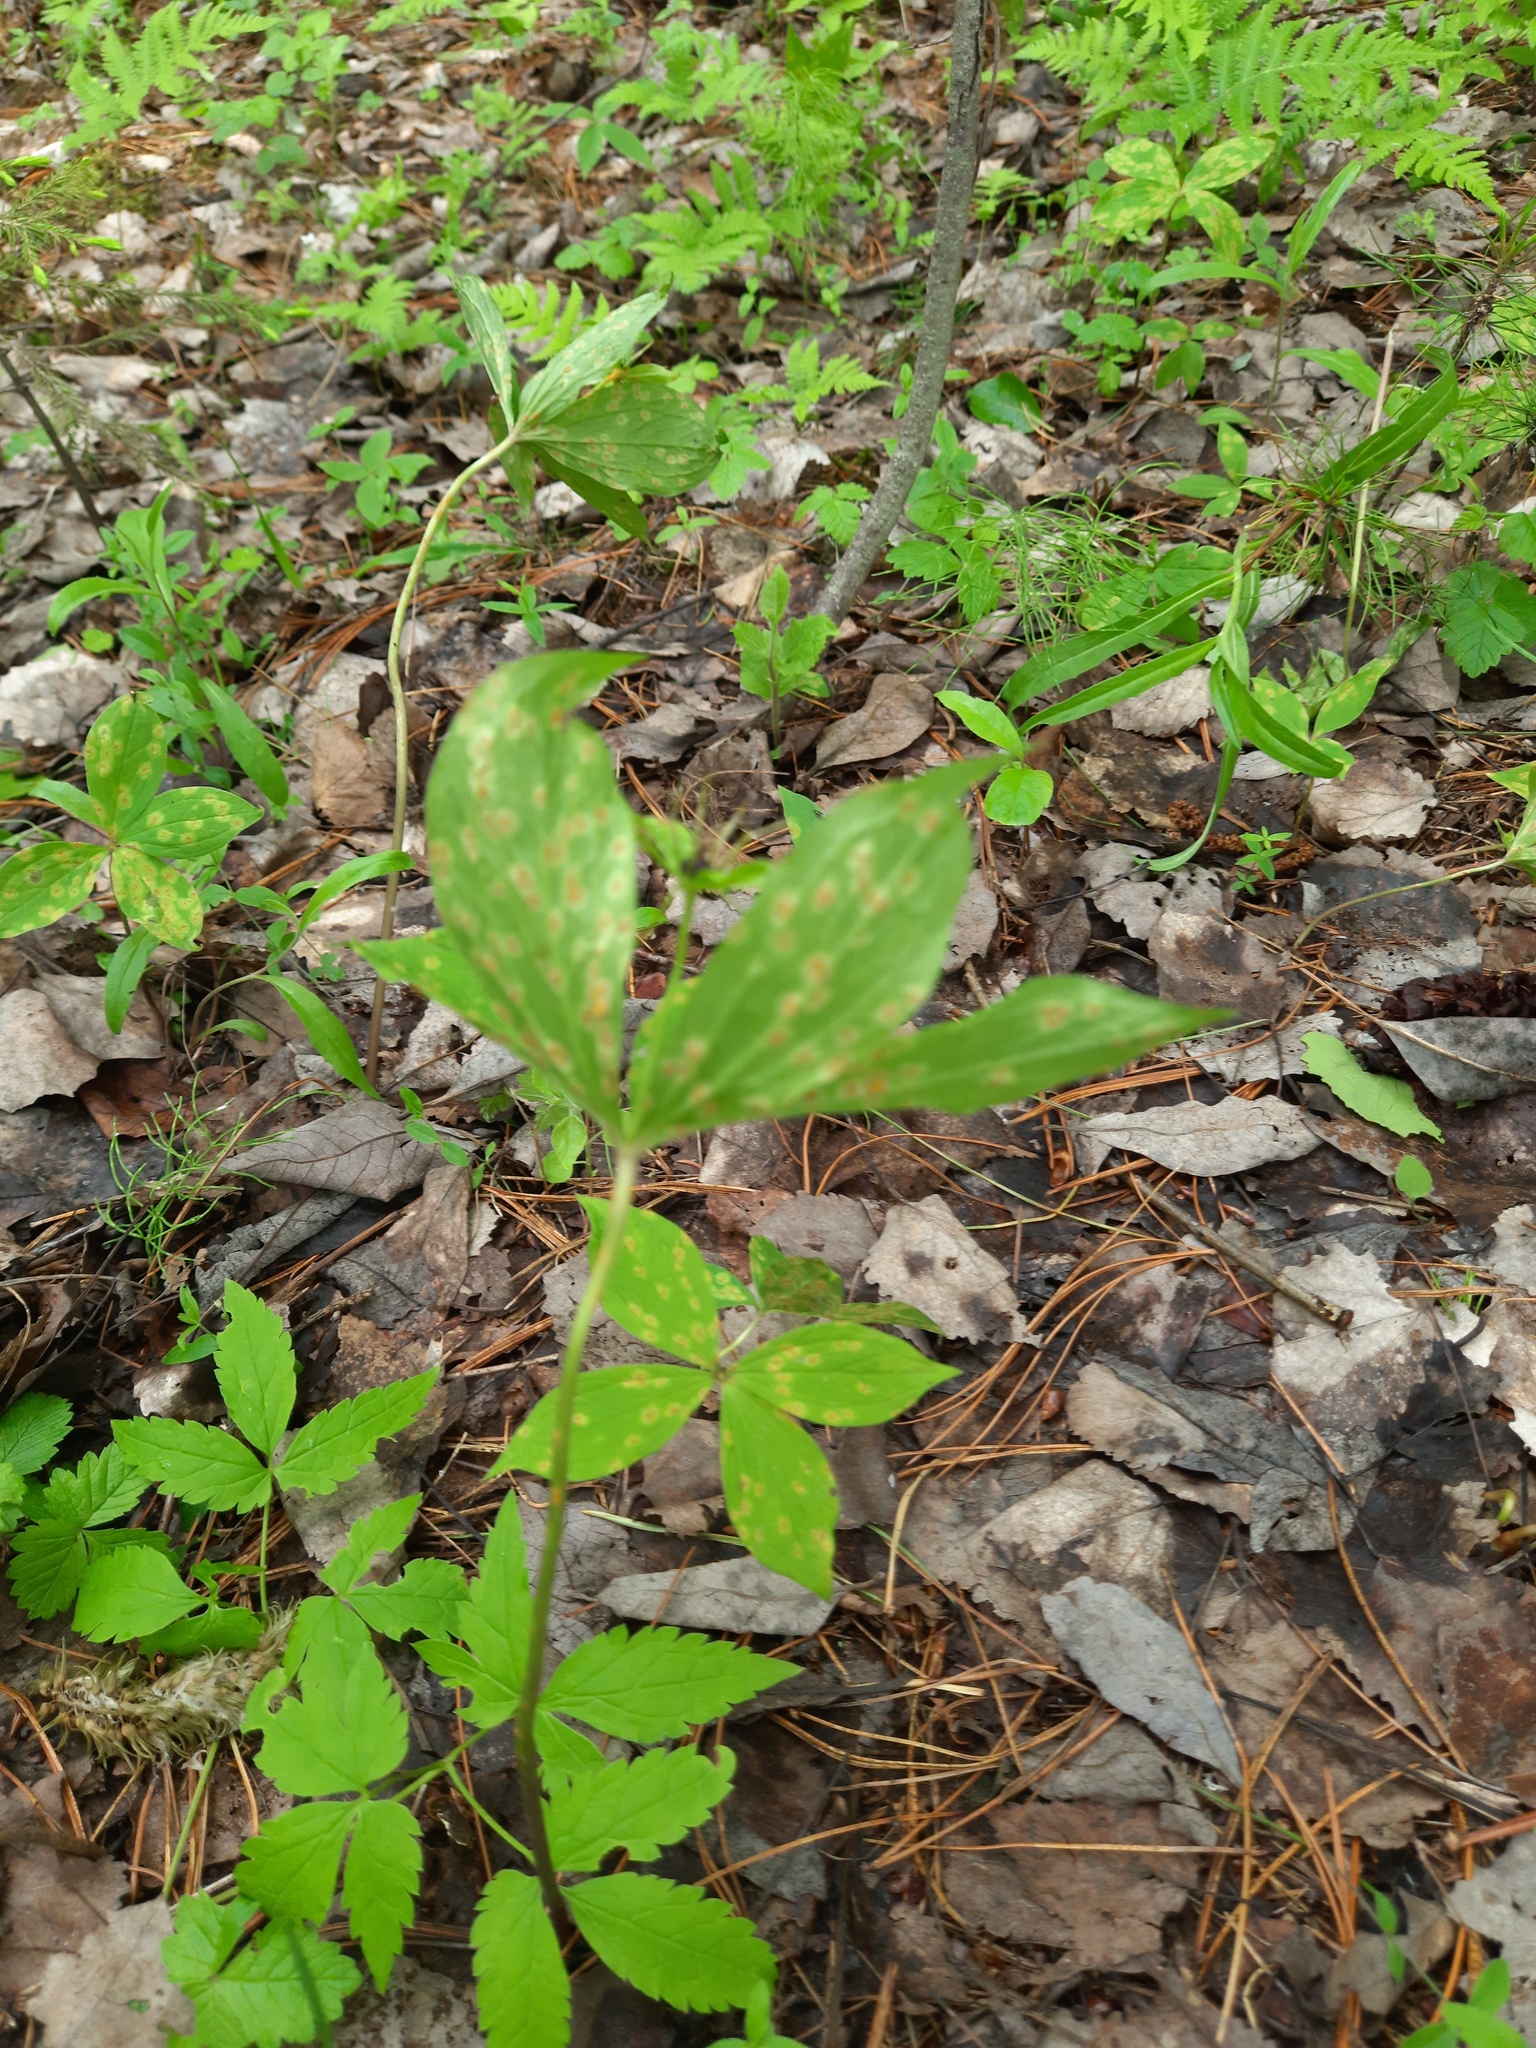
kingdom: Plantae
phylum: Tracheophyta
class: Liliopsida
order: Liliales
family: Melanthiaceae
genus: Paris
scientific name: Paris quadrifolia
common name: Herb-paris
